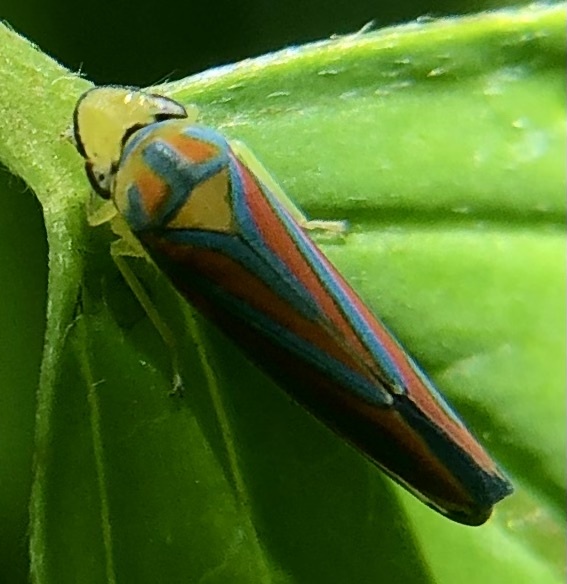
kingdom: Animalia
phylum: Arthropoda
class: Insecta
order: Hemiptera
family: Cicadellidae
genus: Graphocephala
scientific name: Graphocephala coccinea
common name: Candy-striped leafhopper
